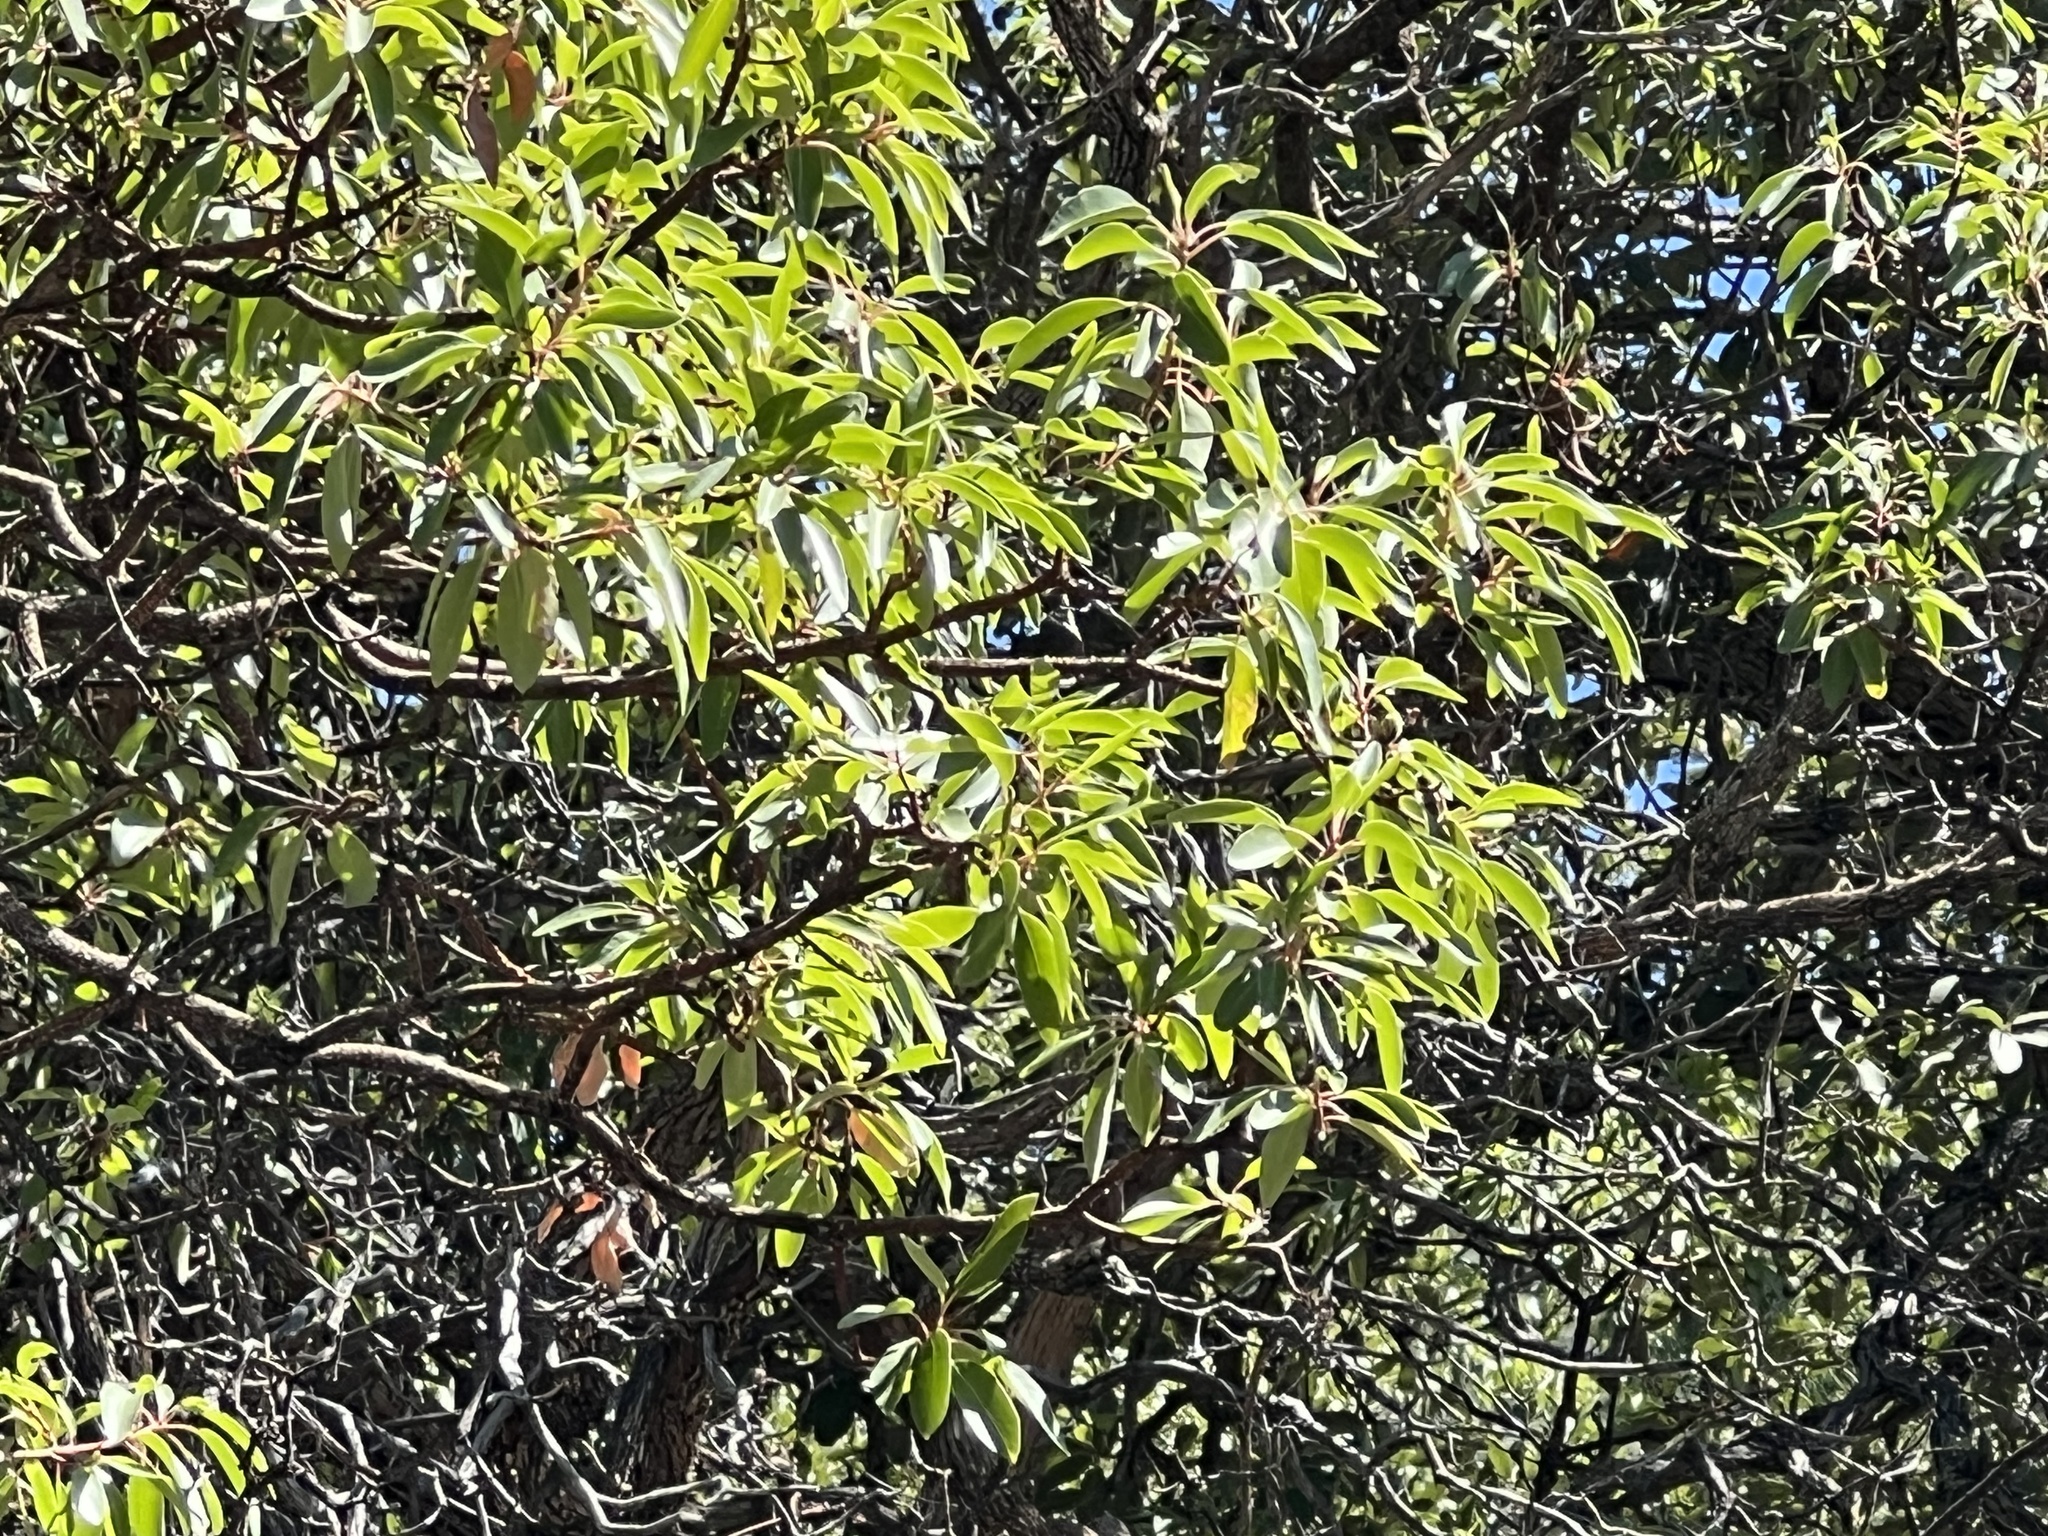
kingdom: Plantae
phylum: Tracheophyta
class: Magnoliopsida
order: Ericales
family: Ericaceae
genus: Arbutus
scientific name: Arbutus arizonica
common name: Arizona madrone
